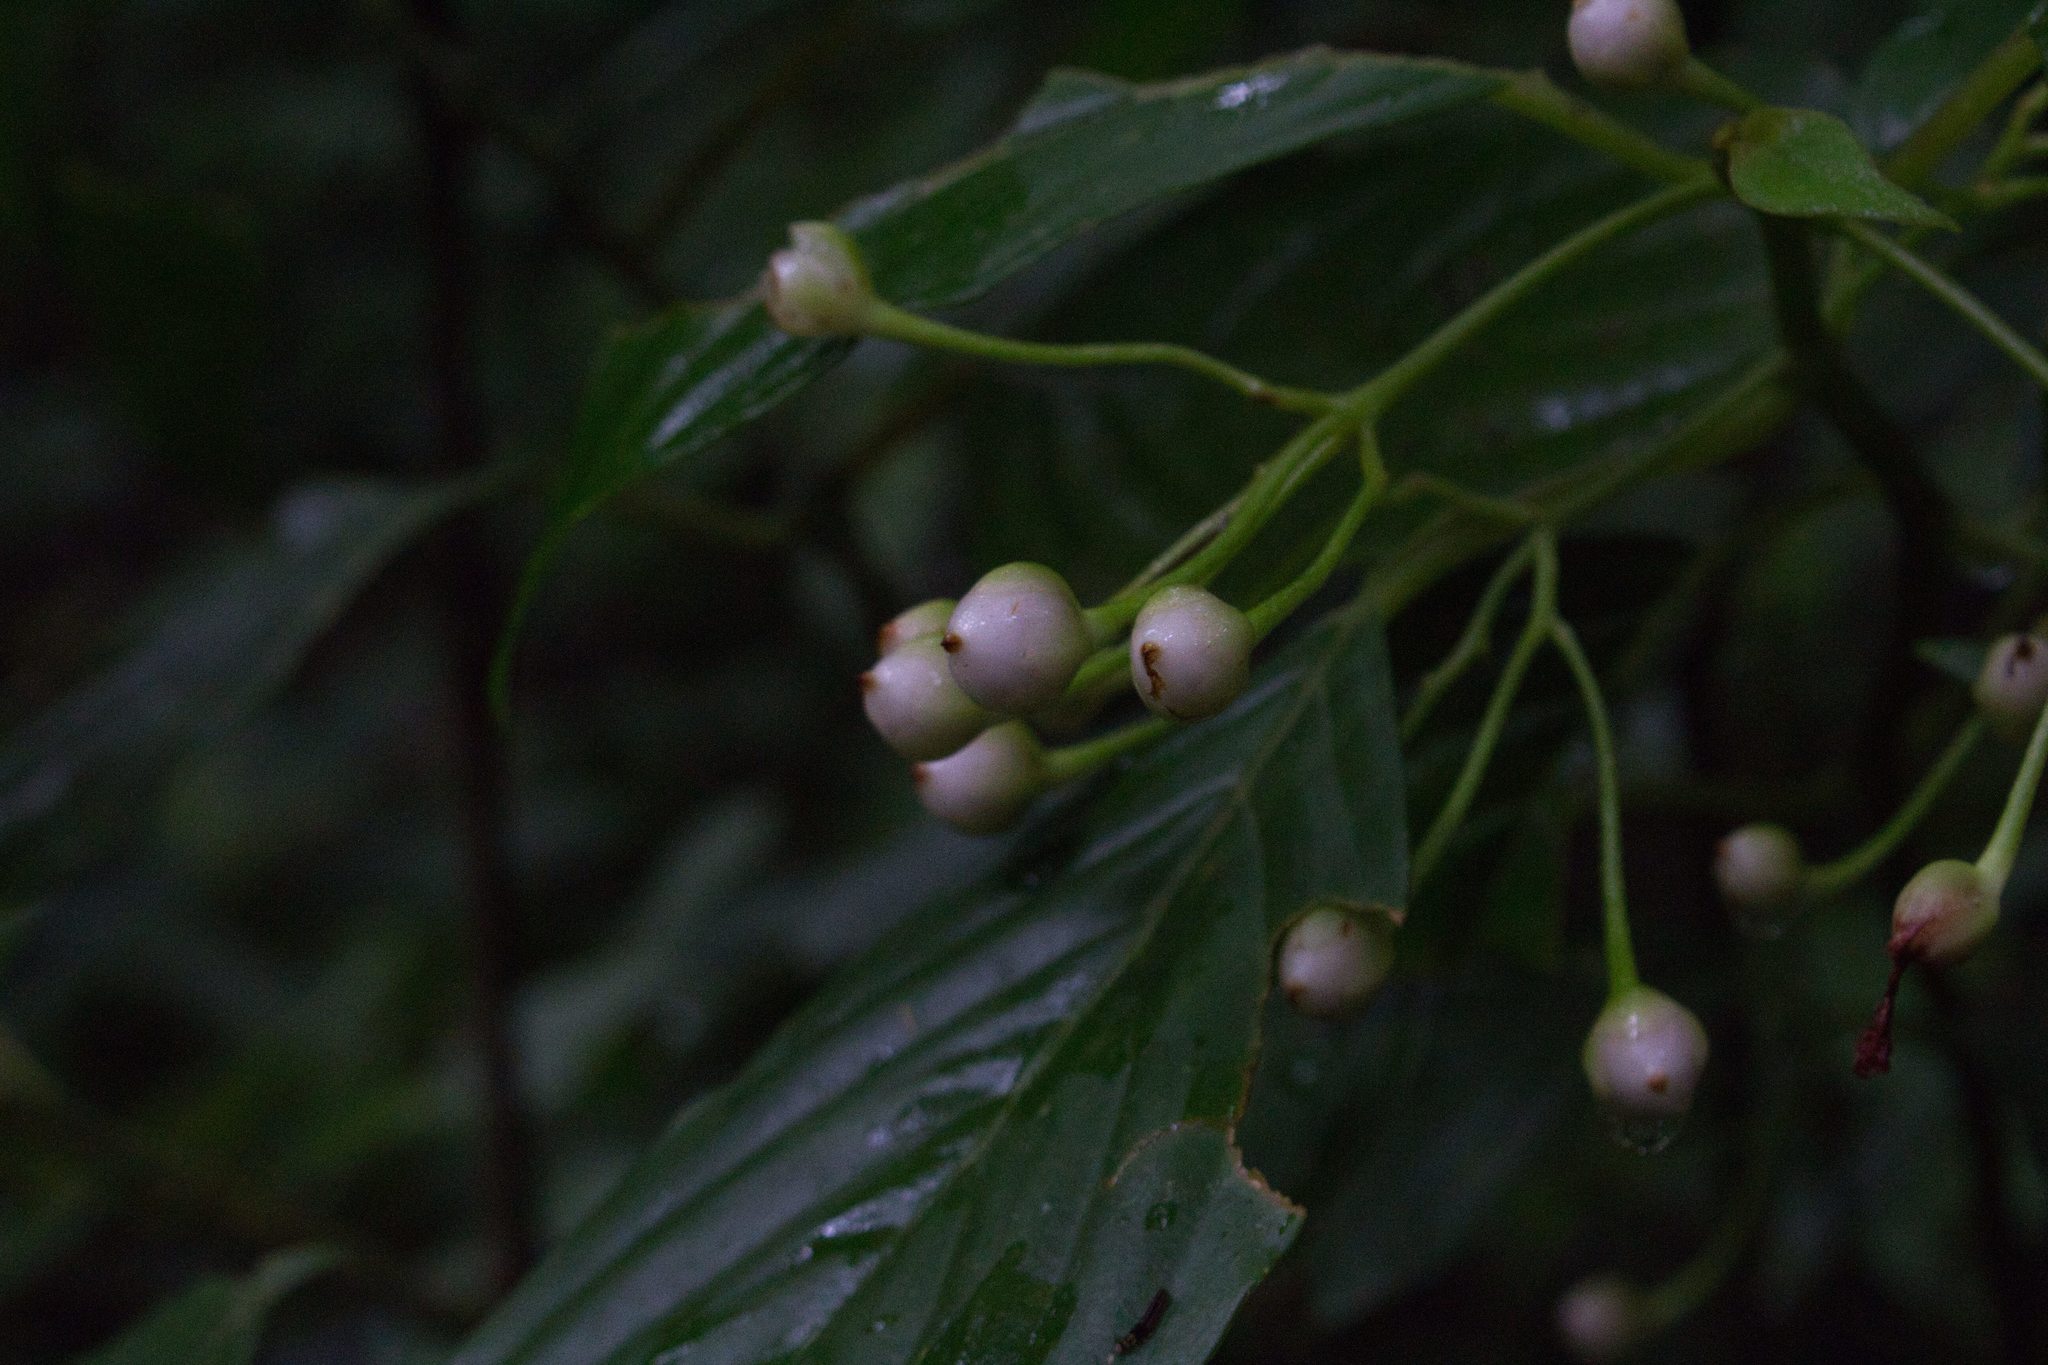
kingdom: Plantae
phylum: Tracheophyta
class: Magnoliopsida
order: Lamiales
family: Gesneriaceae
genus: Besleria
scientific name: Besleria triflora
